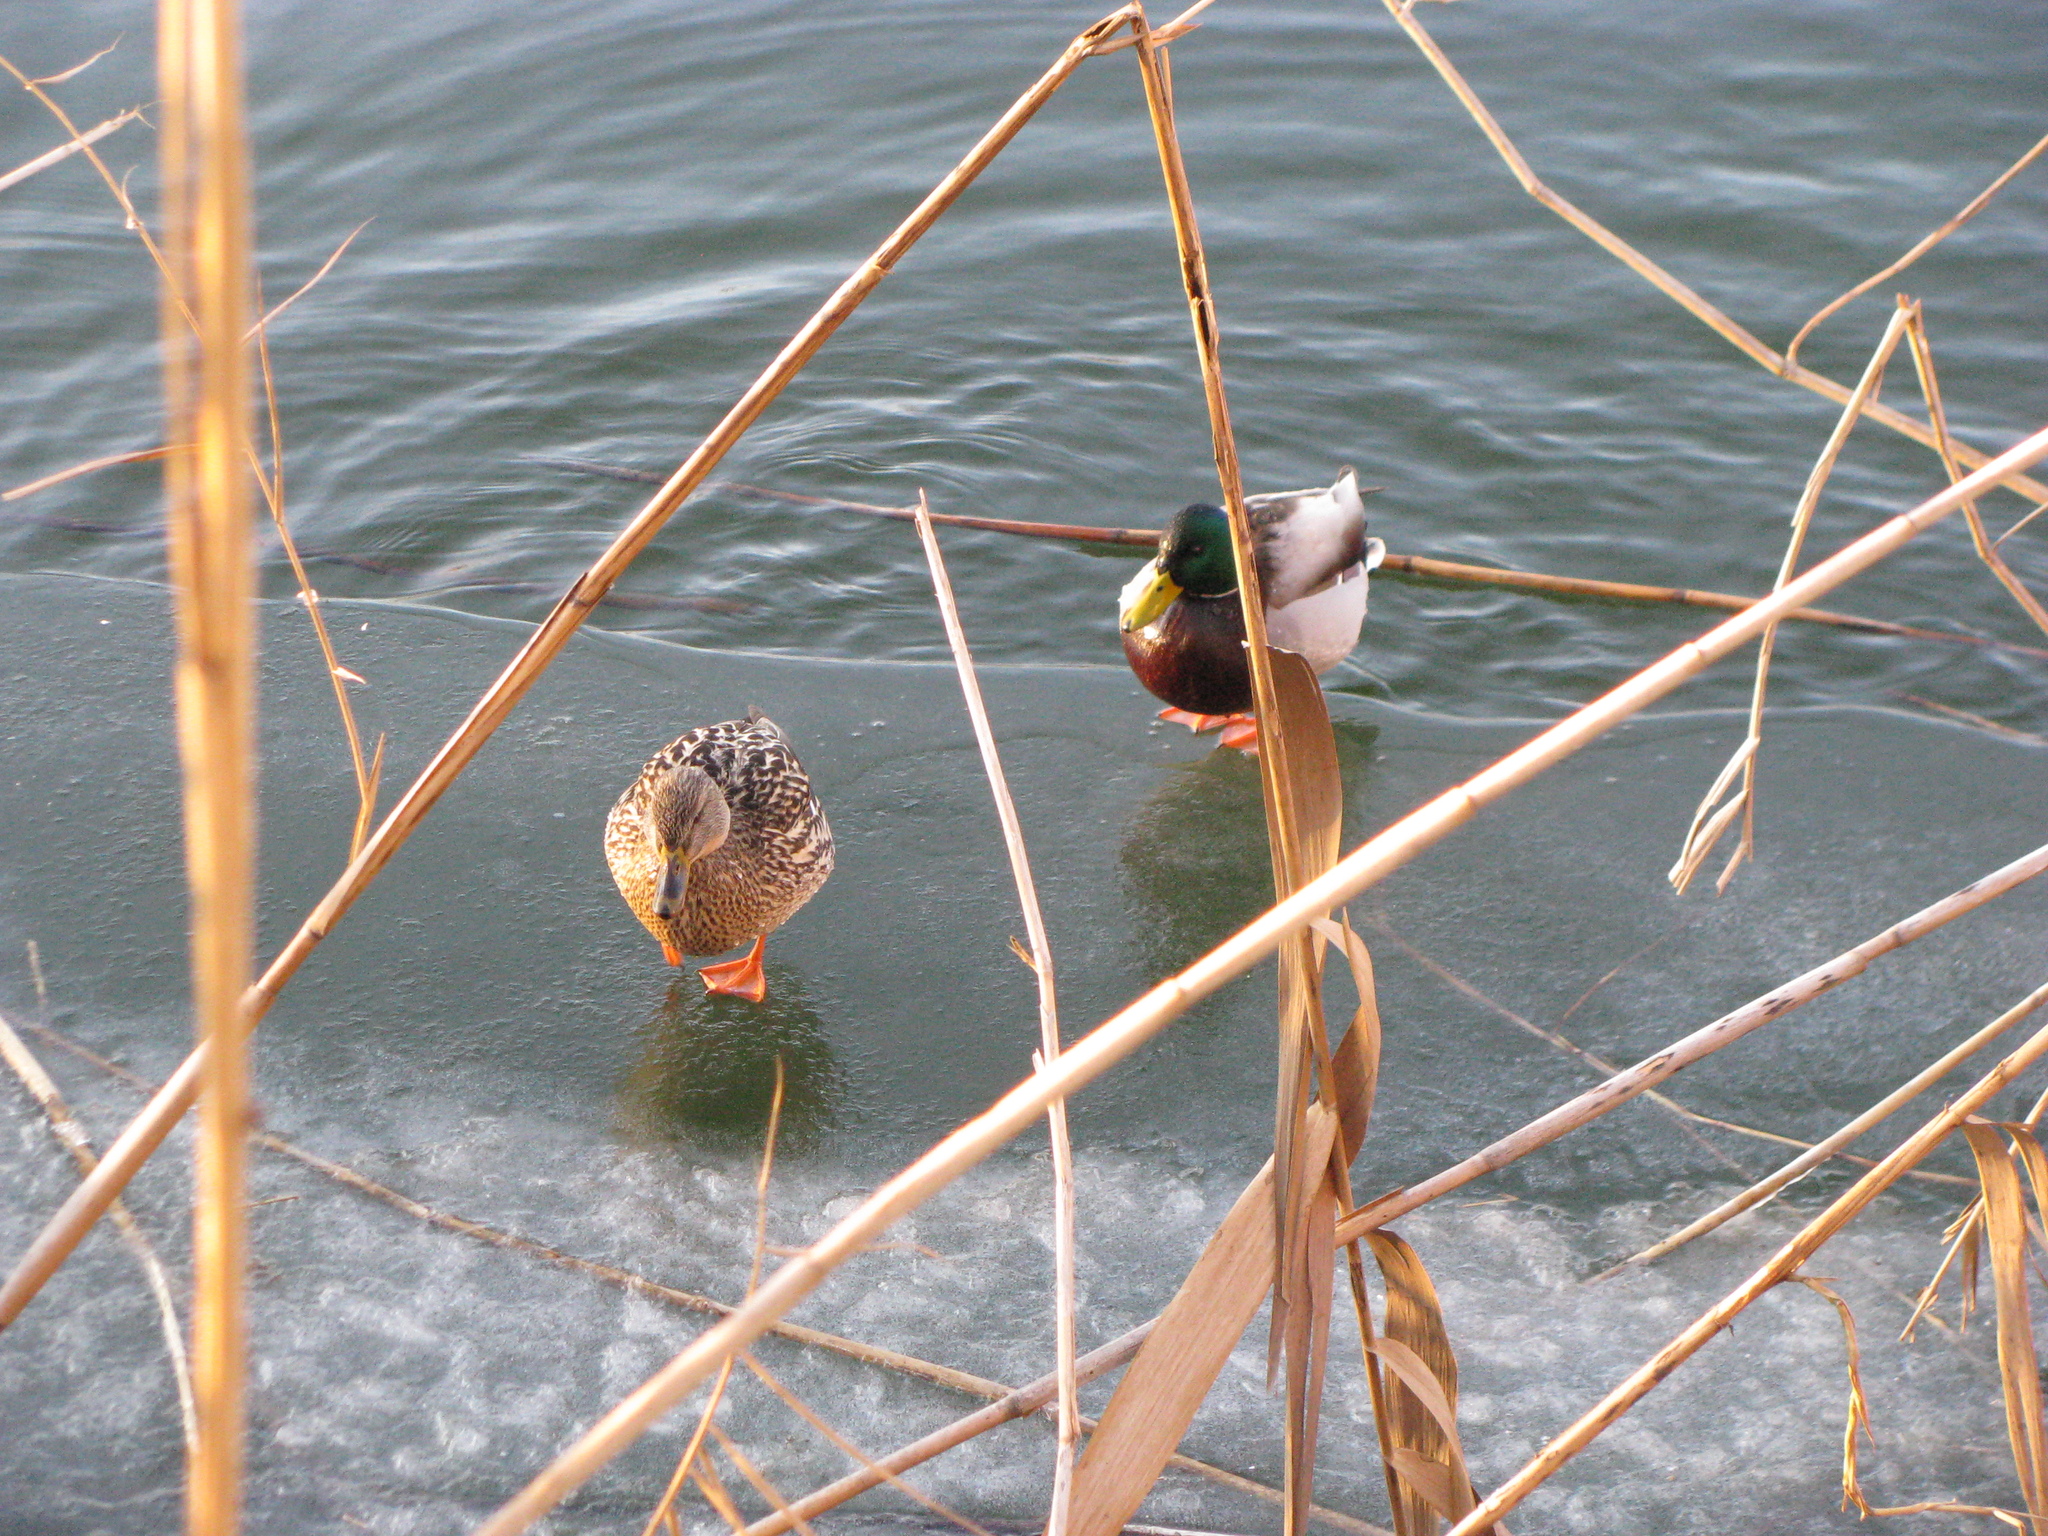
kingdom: Animalia
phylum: Chordata
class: Aves
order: Anseriformes
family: Anatidae
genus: Anas
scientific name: Anas platyrhynchos
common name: Mallard
